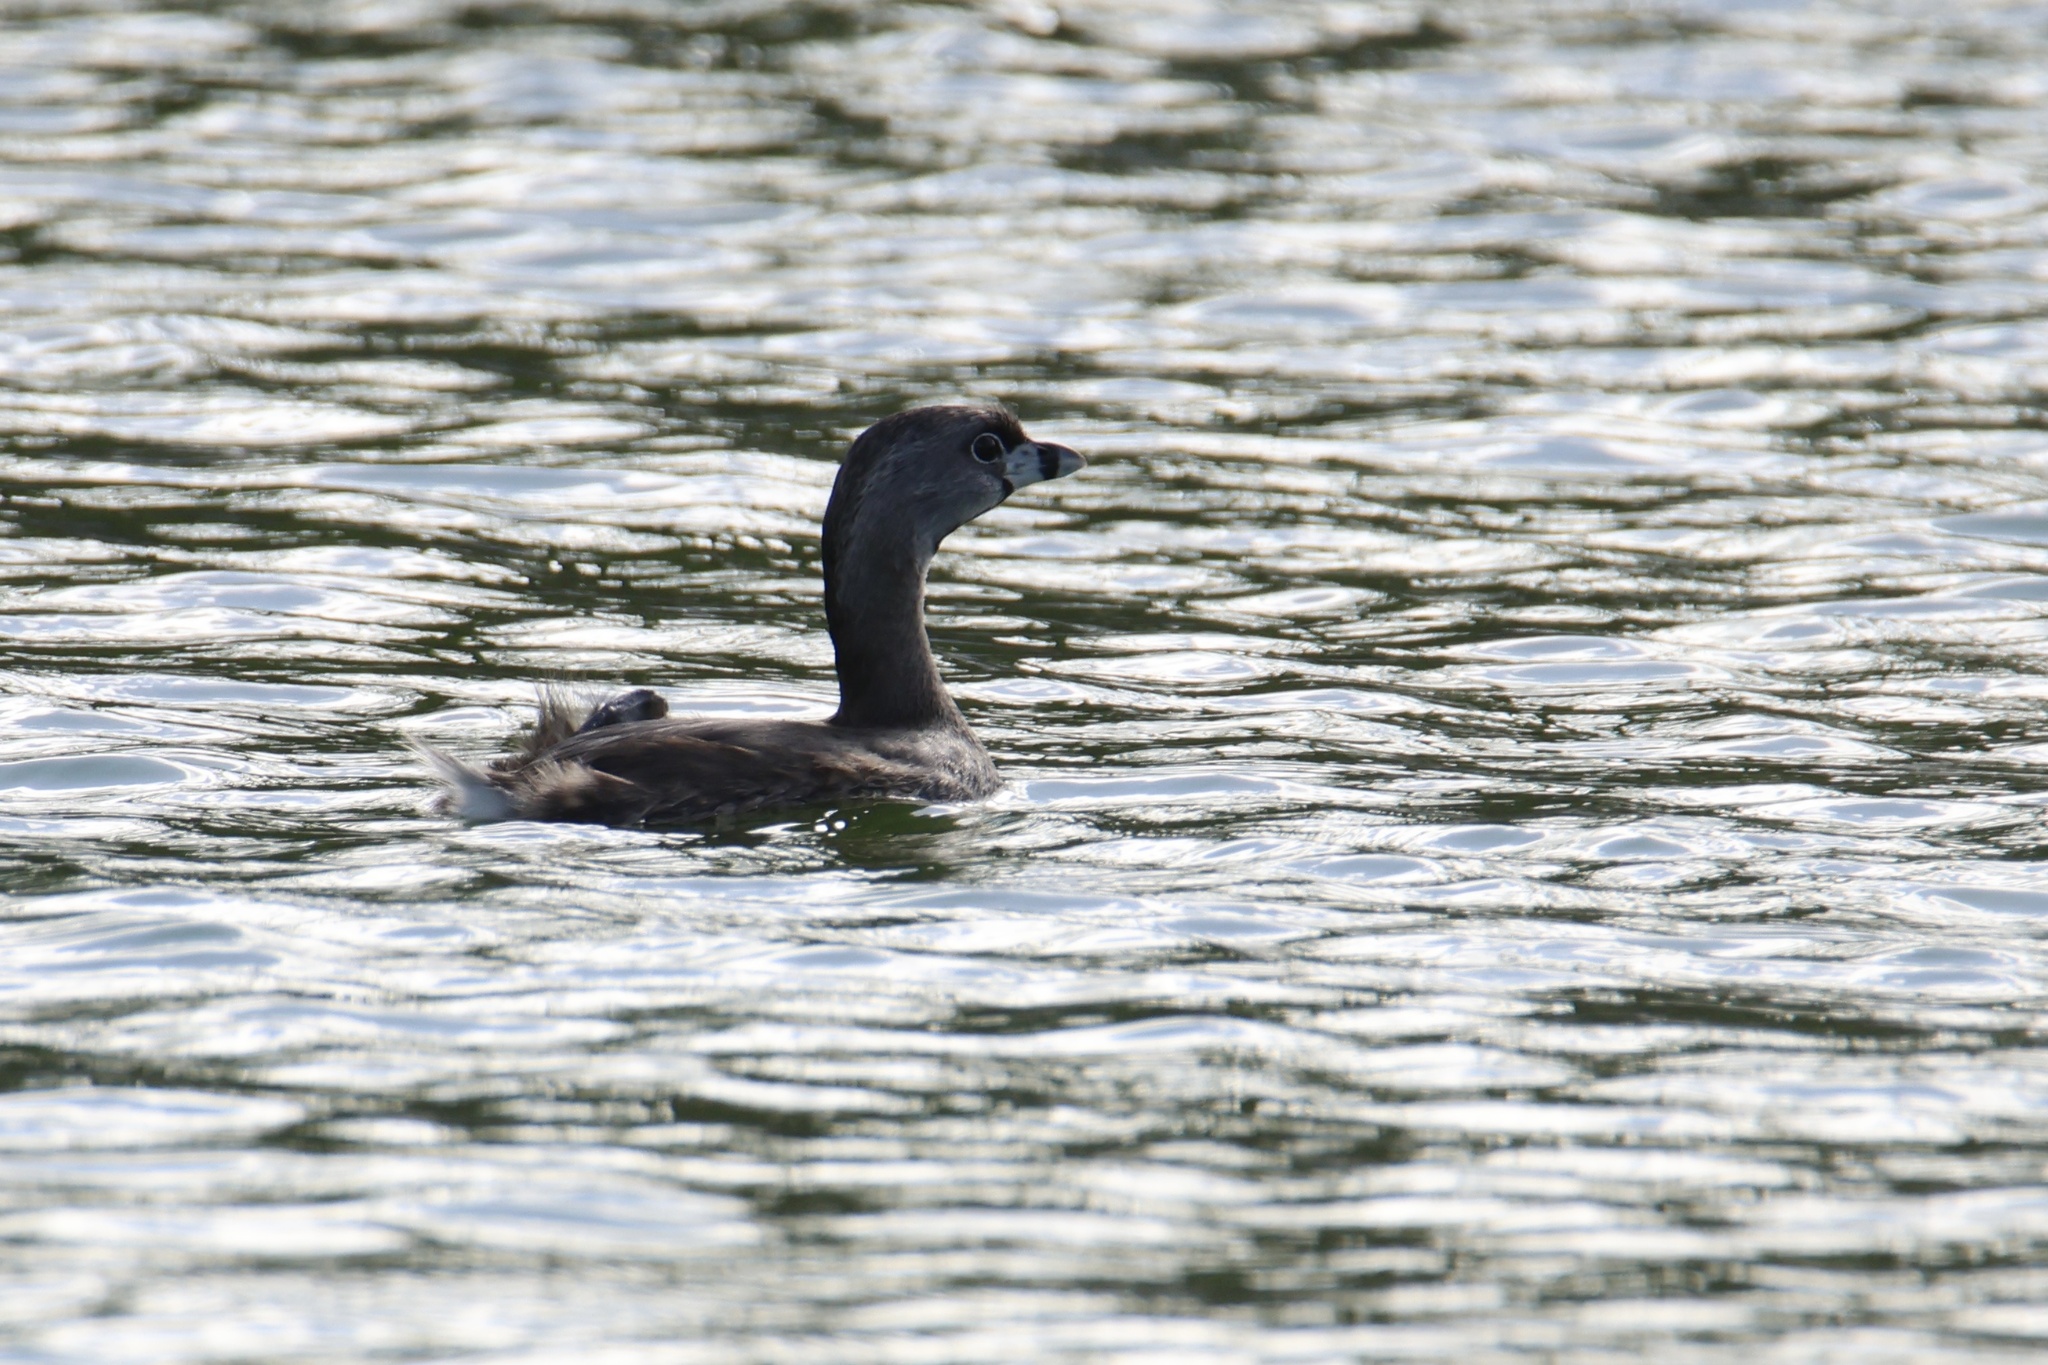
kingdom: Animalia
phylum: Chordata
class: Aves
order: Podicipediformes
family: Podicipedidae
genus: Podilymbus
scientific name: Podilymbus podiceps
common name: Pied-billed grebe
